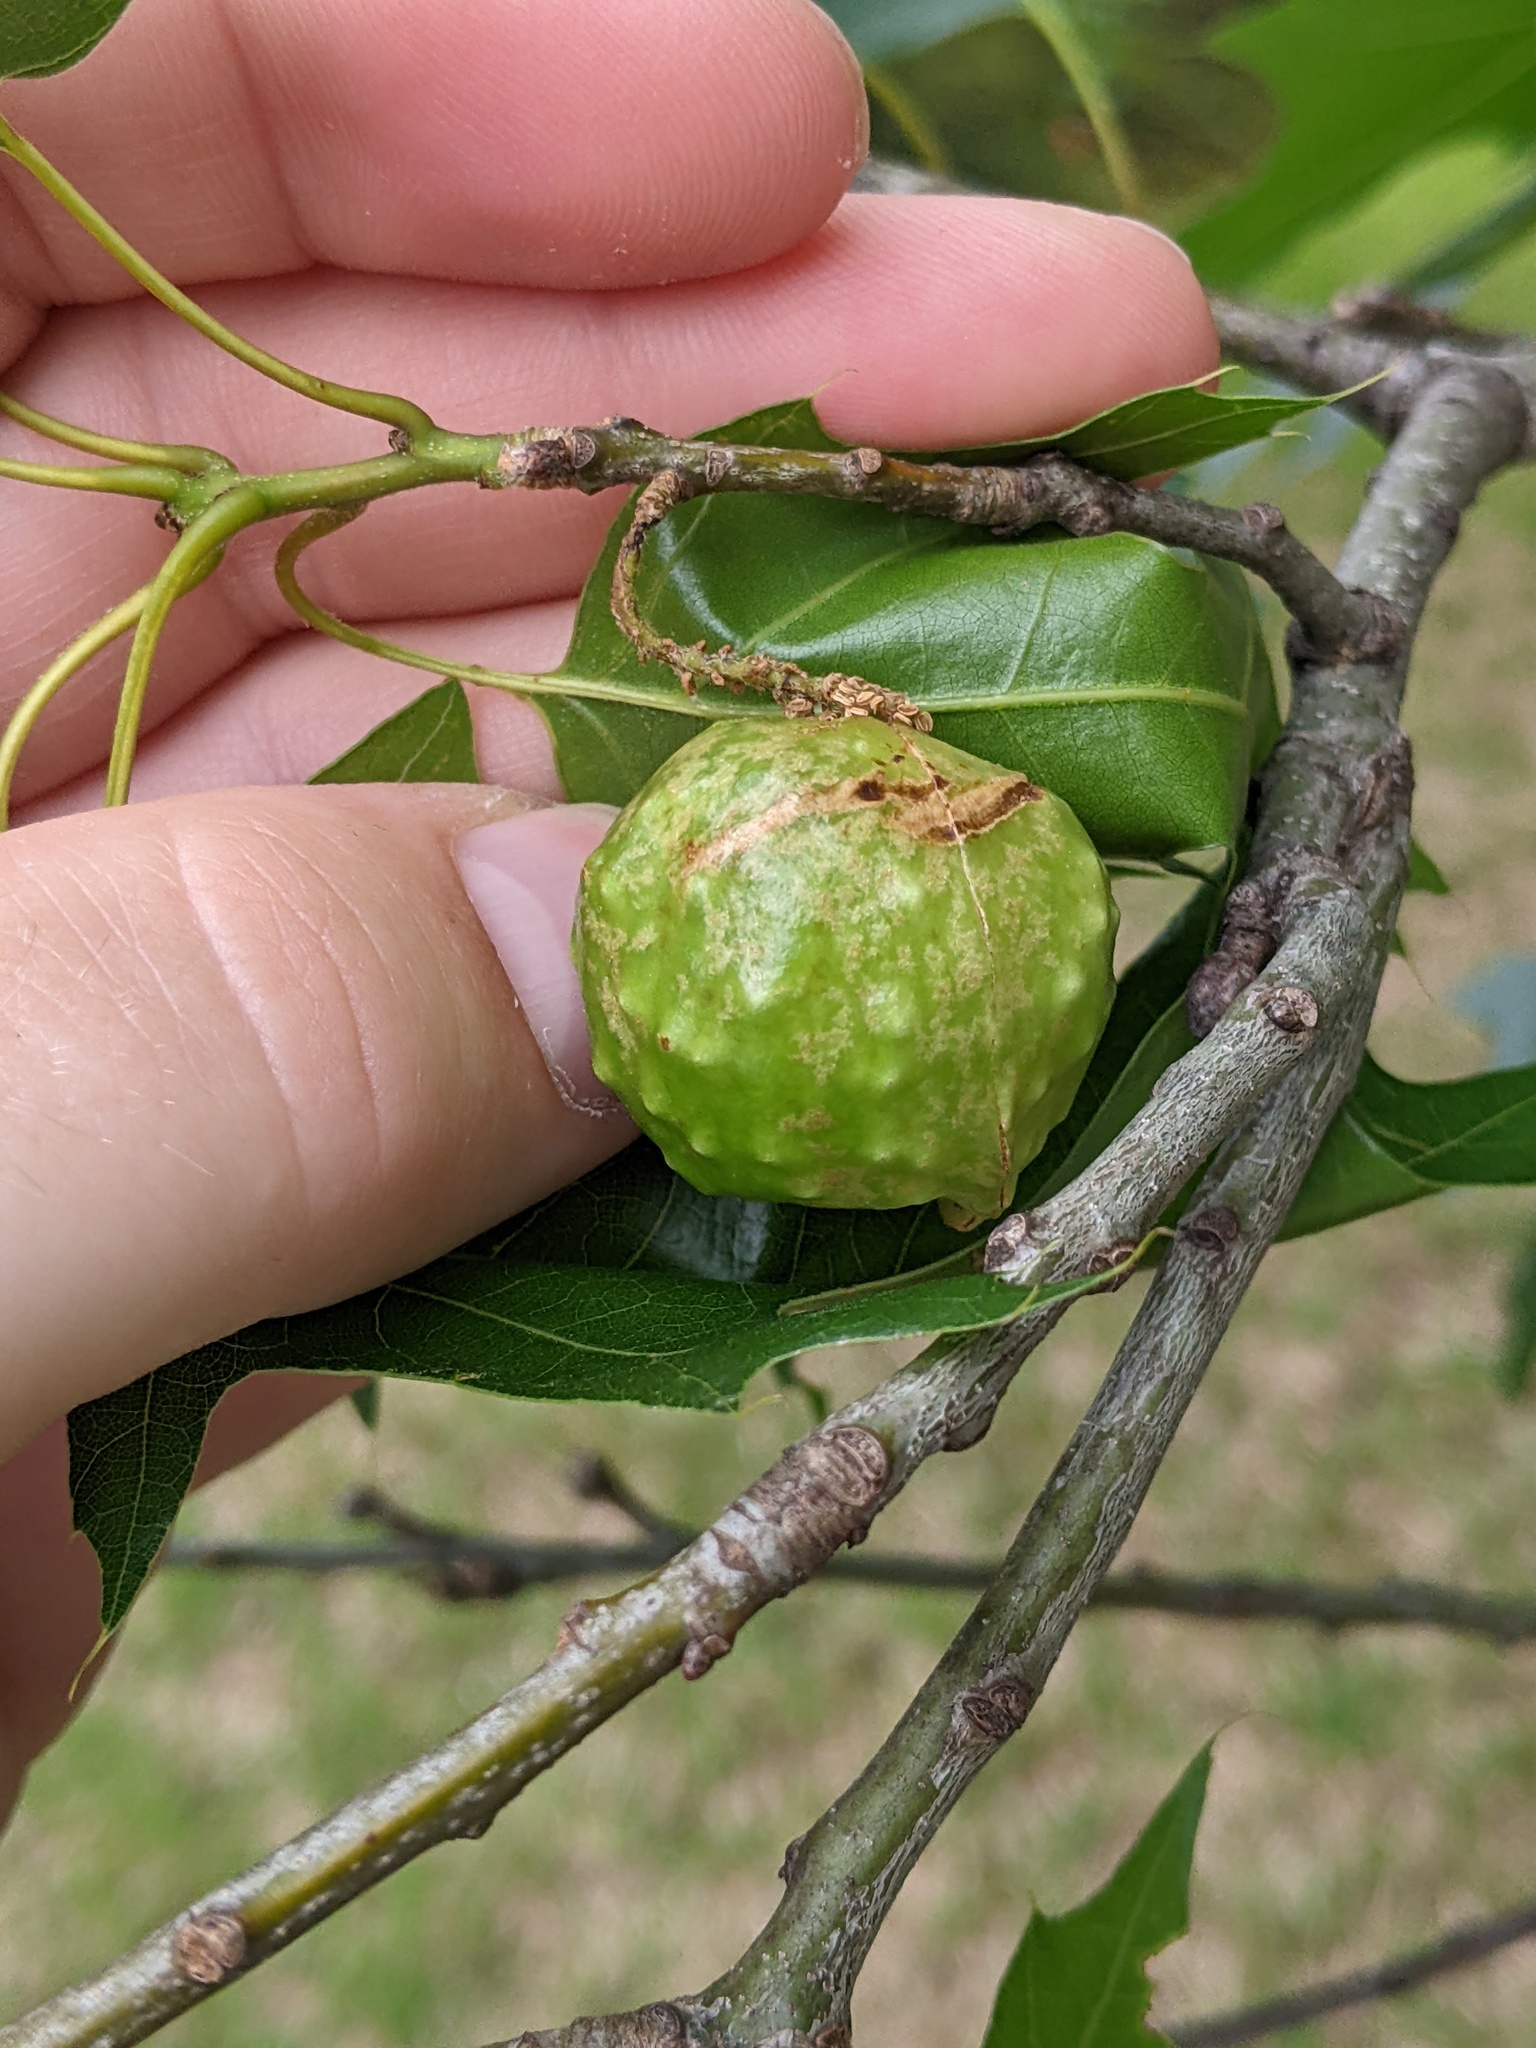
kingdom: Animalia
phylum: Arthropoda
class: Insecta
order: Hymenoptera
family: Cynipidae
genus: Amphibolips
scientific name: Amphibolips
